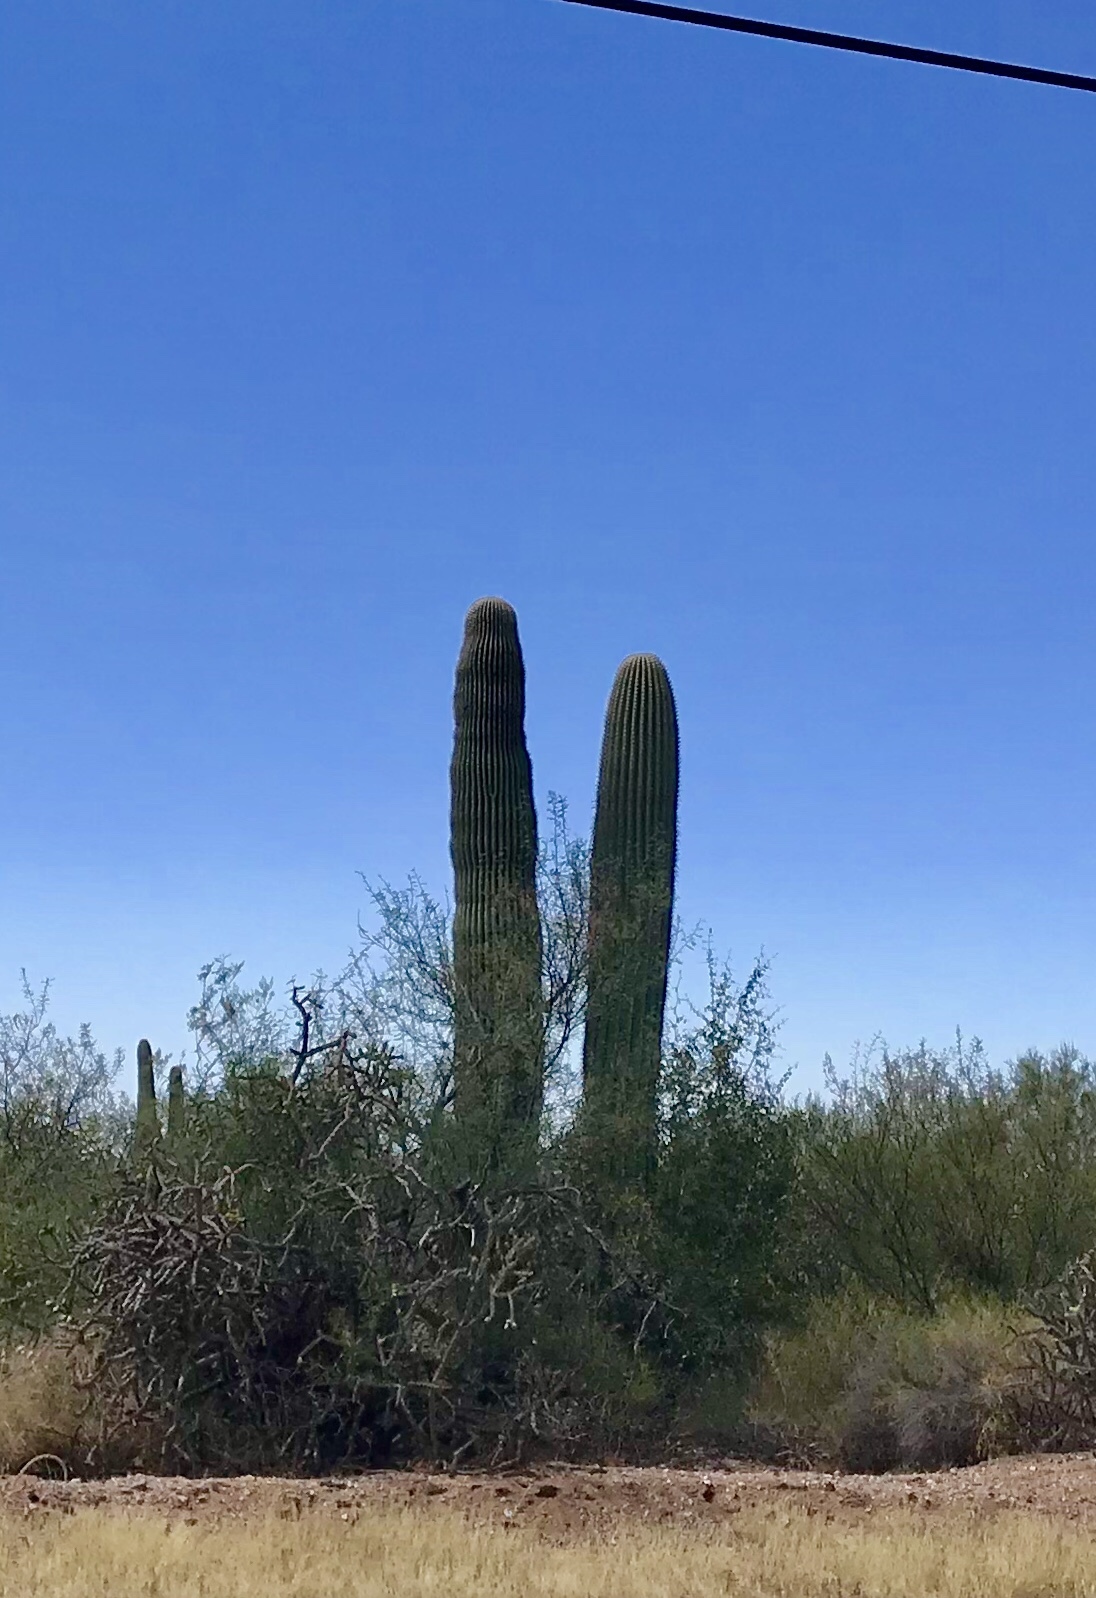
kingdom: Plantae
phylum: Tracheophyta
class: Magnoliopsida
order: Caryophyllales
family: Cactaceae
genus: Carnegiea
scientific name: Carnegiea gigantea
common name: Saguaro
